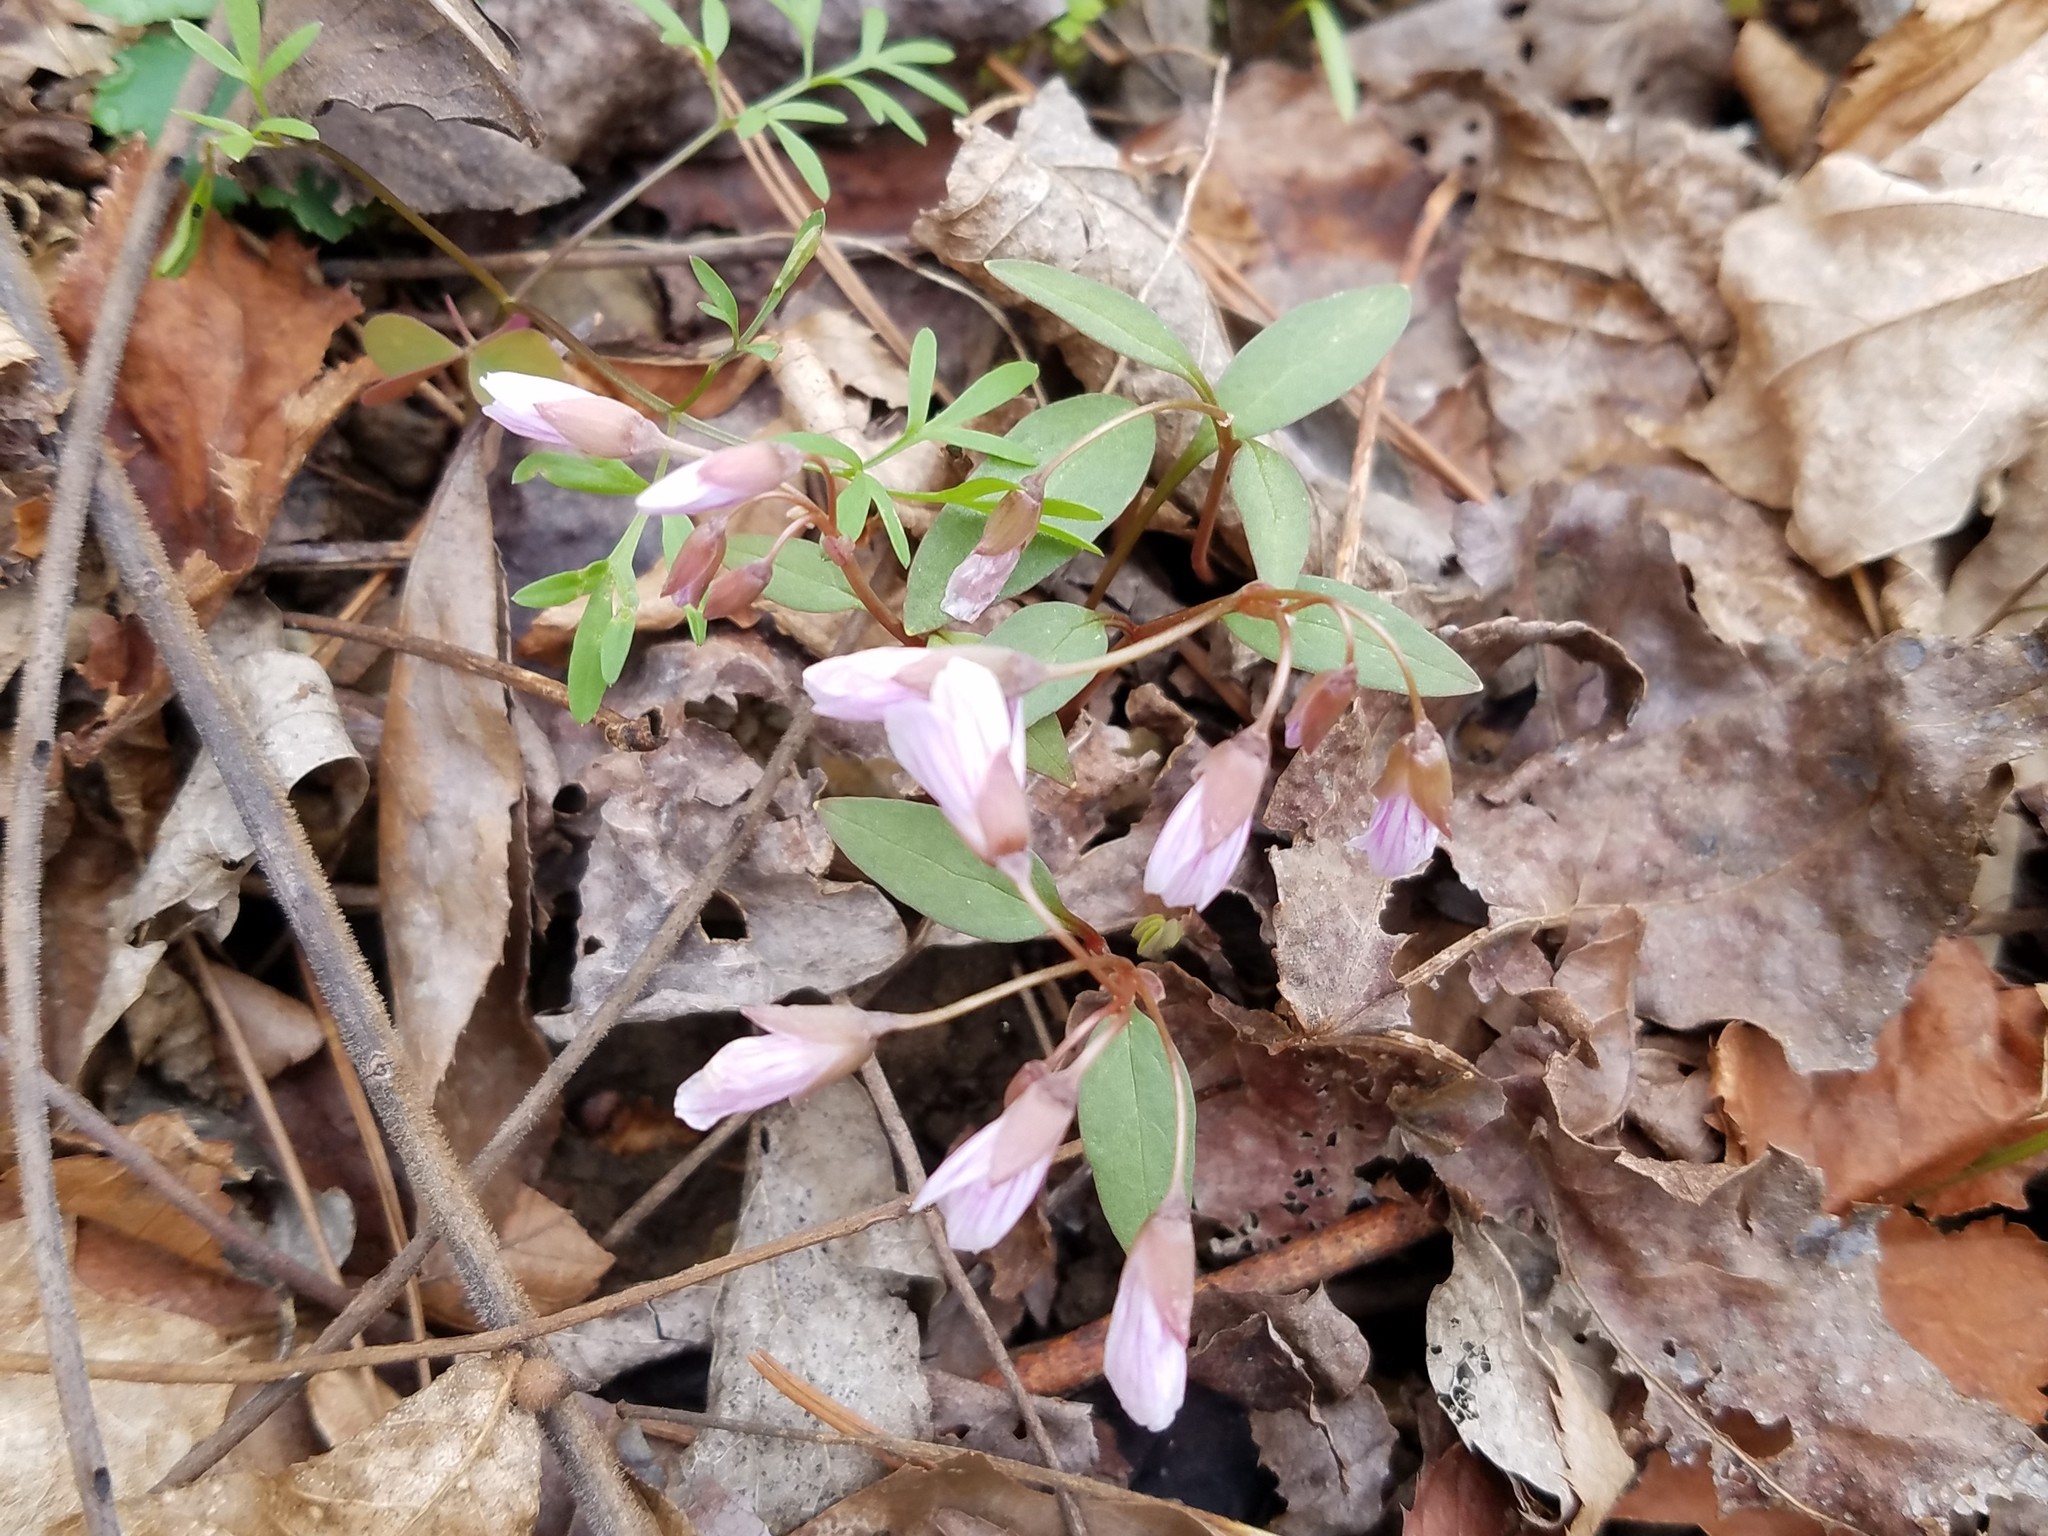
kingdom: Plantae
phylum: Tracheophyta
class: Magnoliopsida
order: Caryophyllales
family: Montiaceae
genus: Claytonia
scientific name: Claytonia caroliniana
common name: Carolina spring beauty
